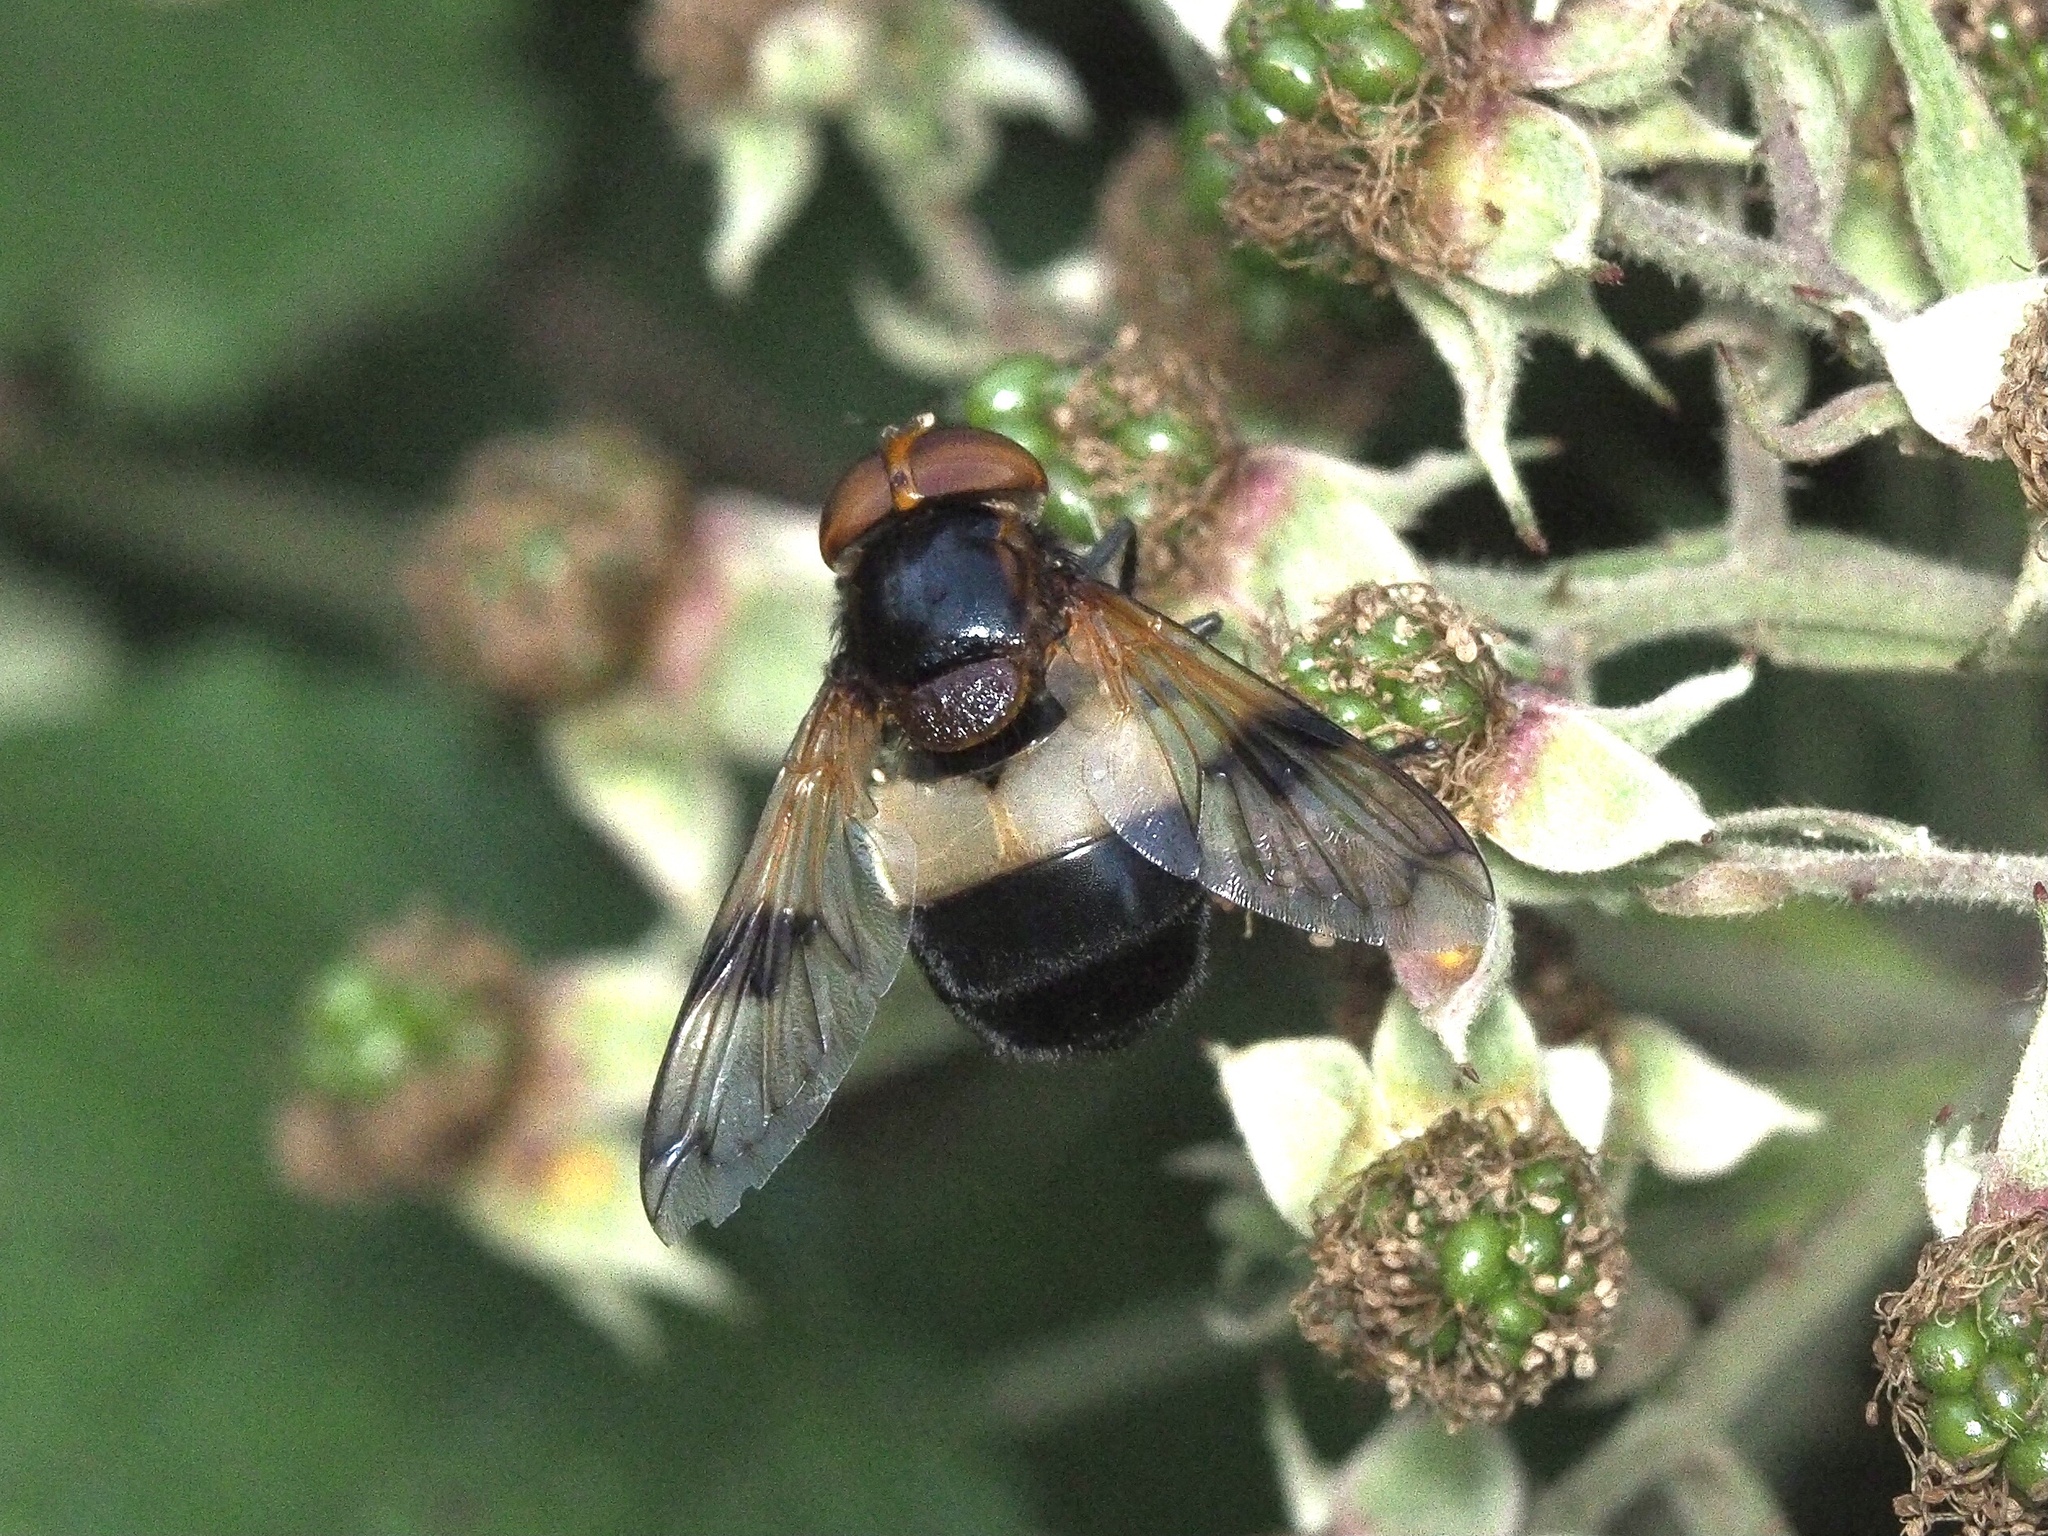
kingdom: Animalia
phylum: Arthropoda
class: Insecta
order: Diptera
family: Syrphidae
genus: Volucella
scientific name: Volucella pellucens
